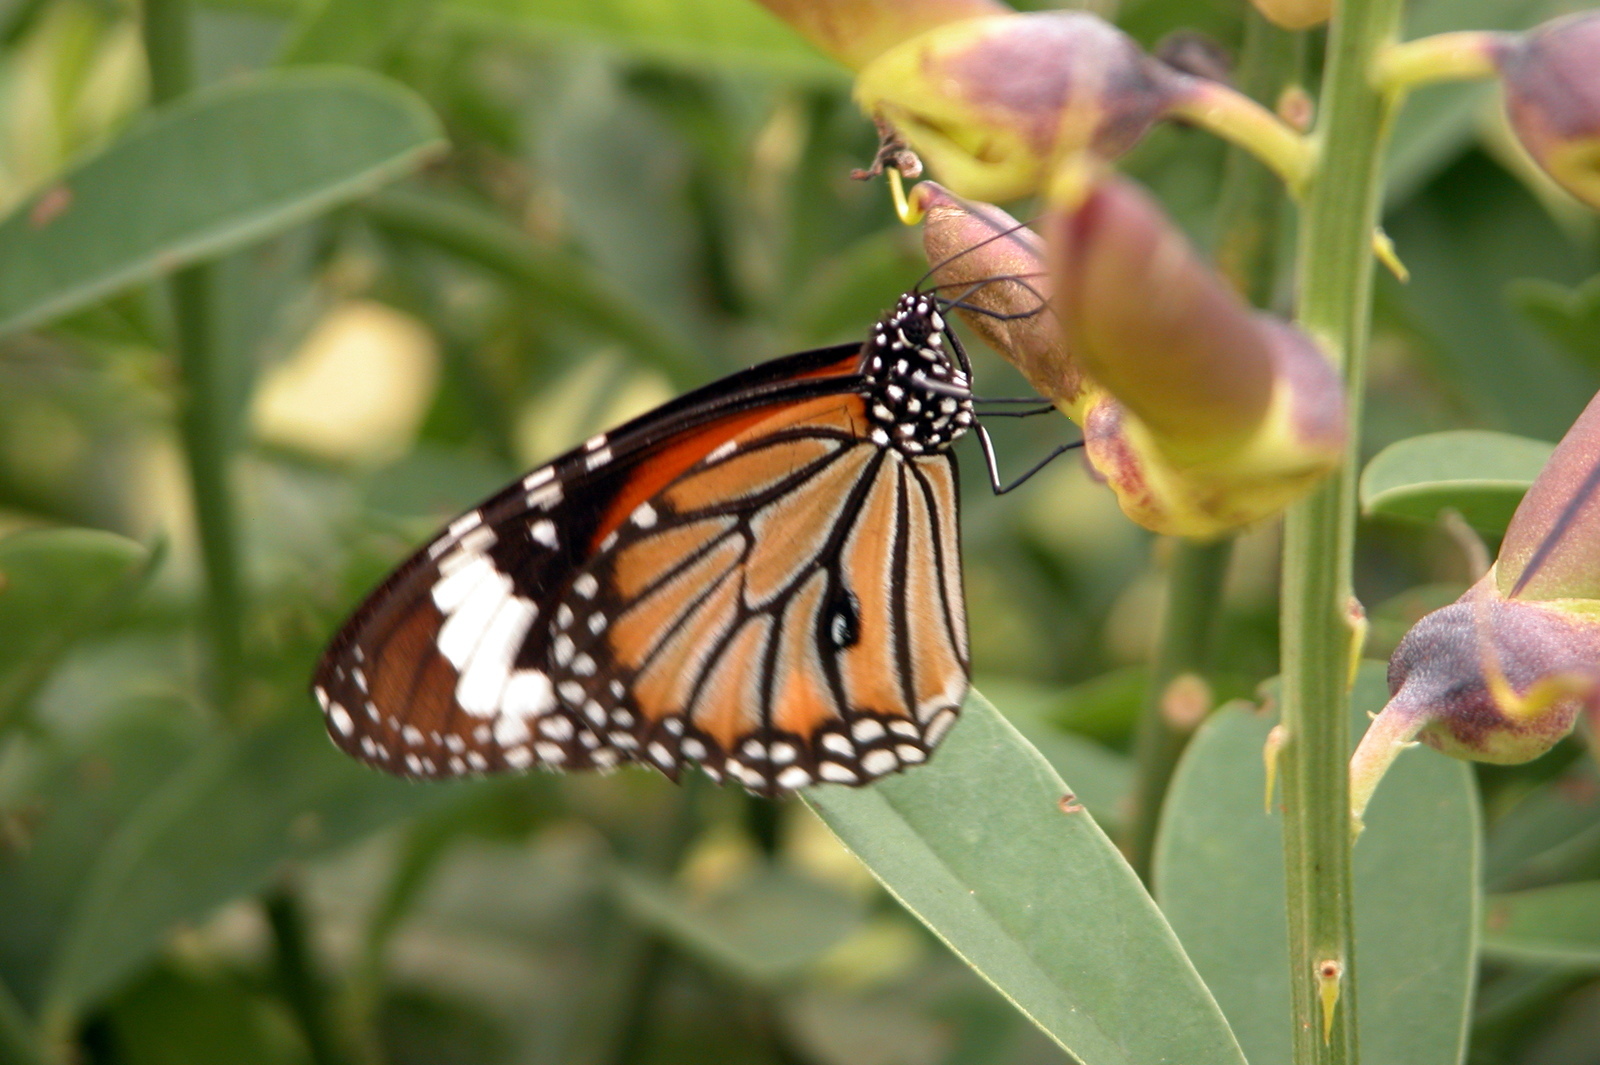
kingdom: Animalia
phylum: Arthropoda
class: Insecta
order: Lepidoptera
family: Nymphalidae
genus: Danaus
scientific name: Danaus genutia
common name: Common tiger butterfly
